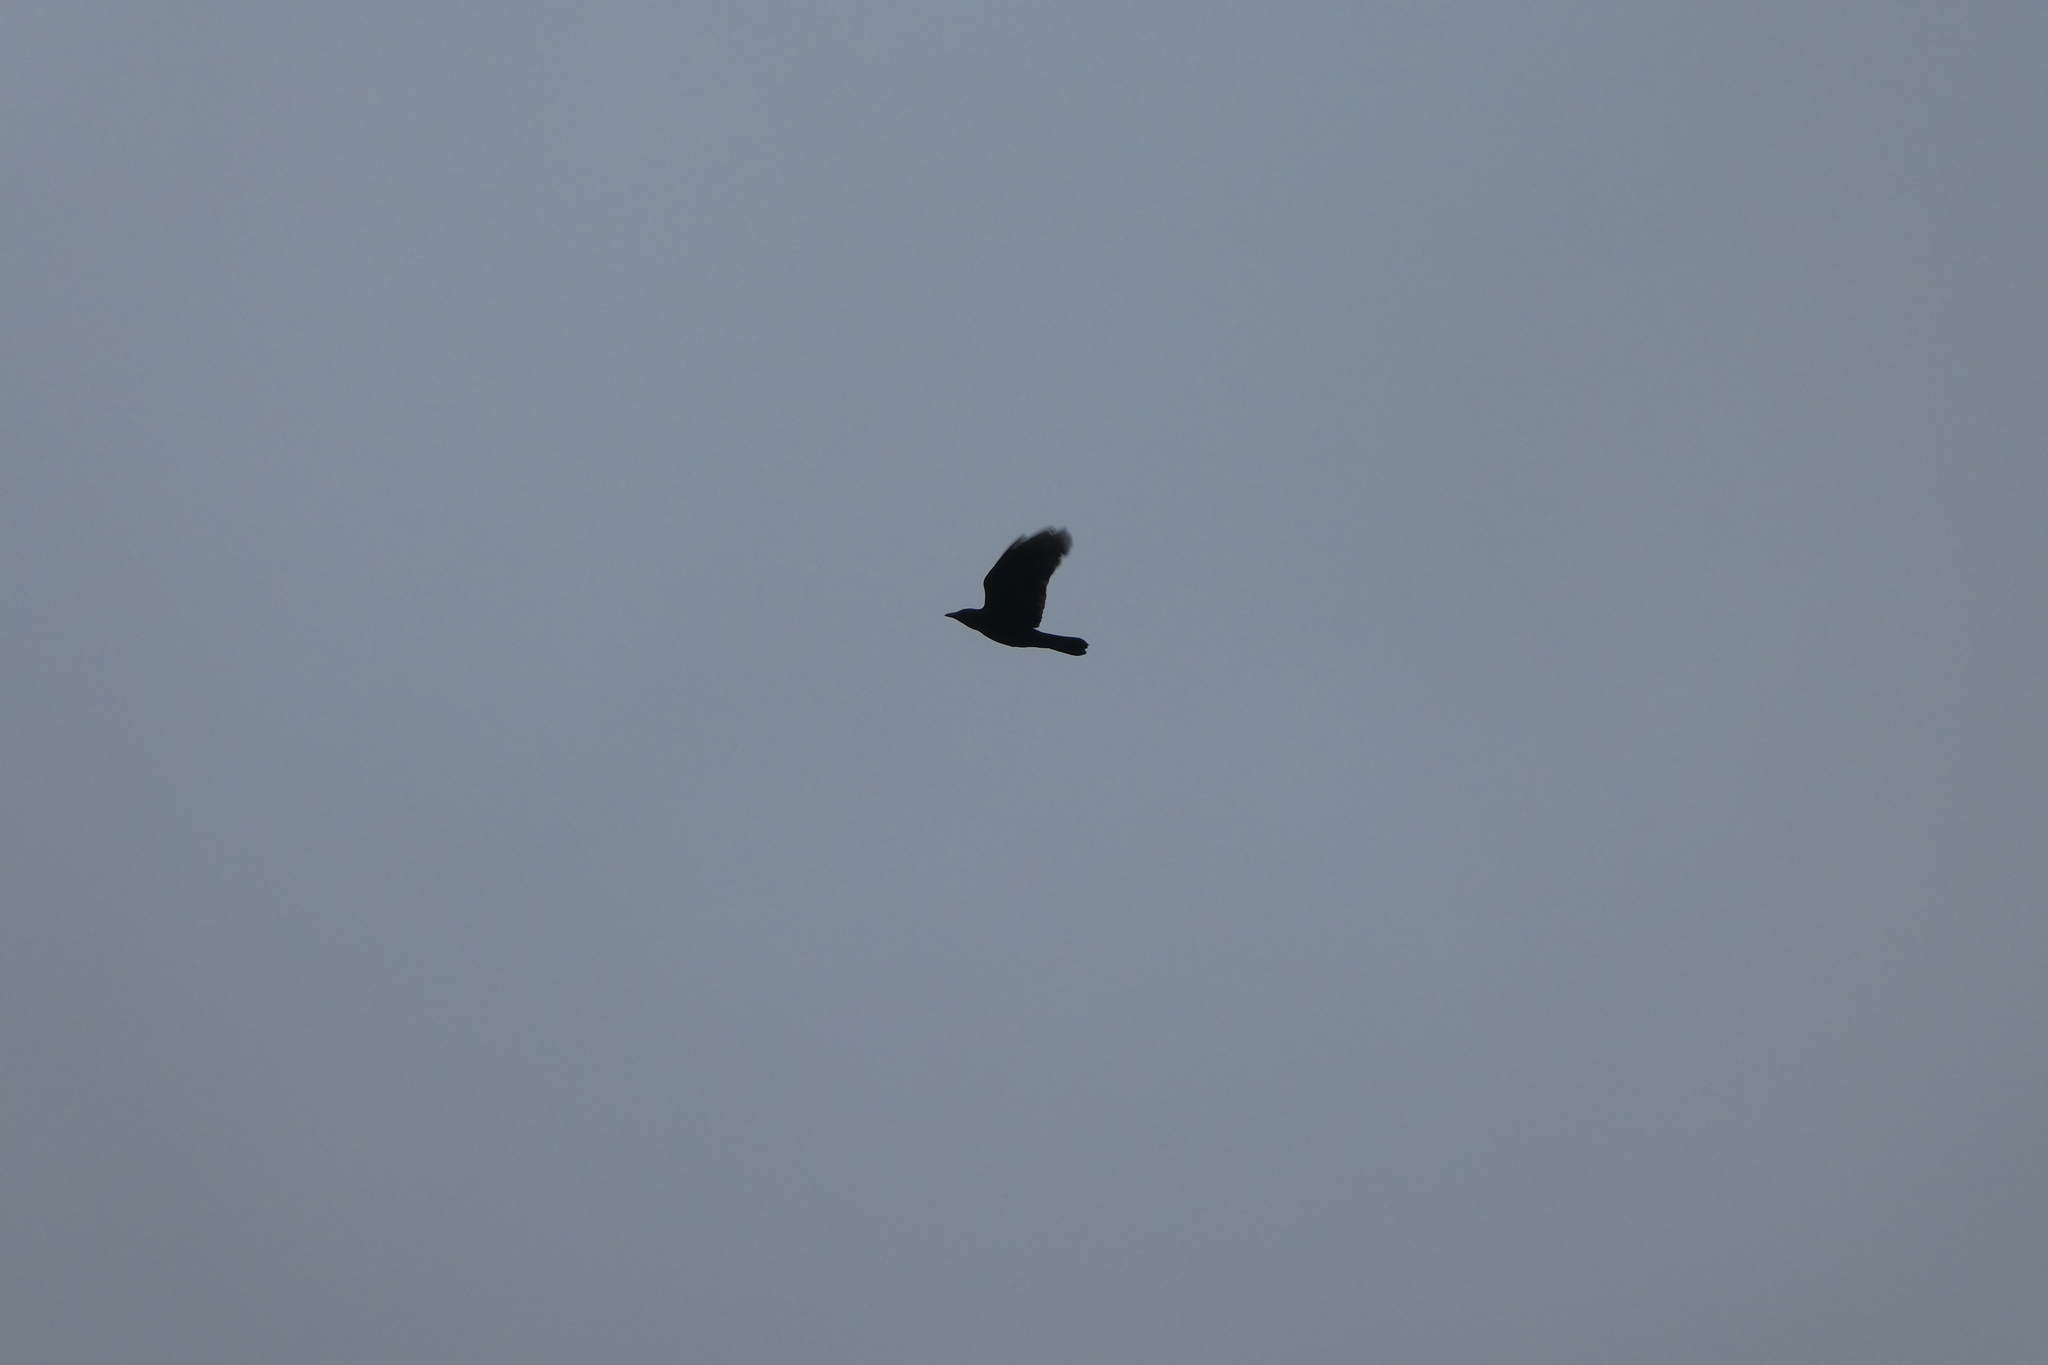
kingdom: Animalia
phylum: Chordata
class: Aves
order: Passeriformes
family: Corvidae
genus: Corvus
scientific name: Corvus brachyrhynchos
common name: American crow
